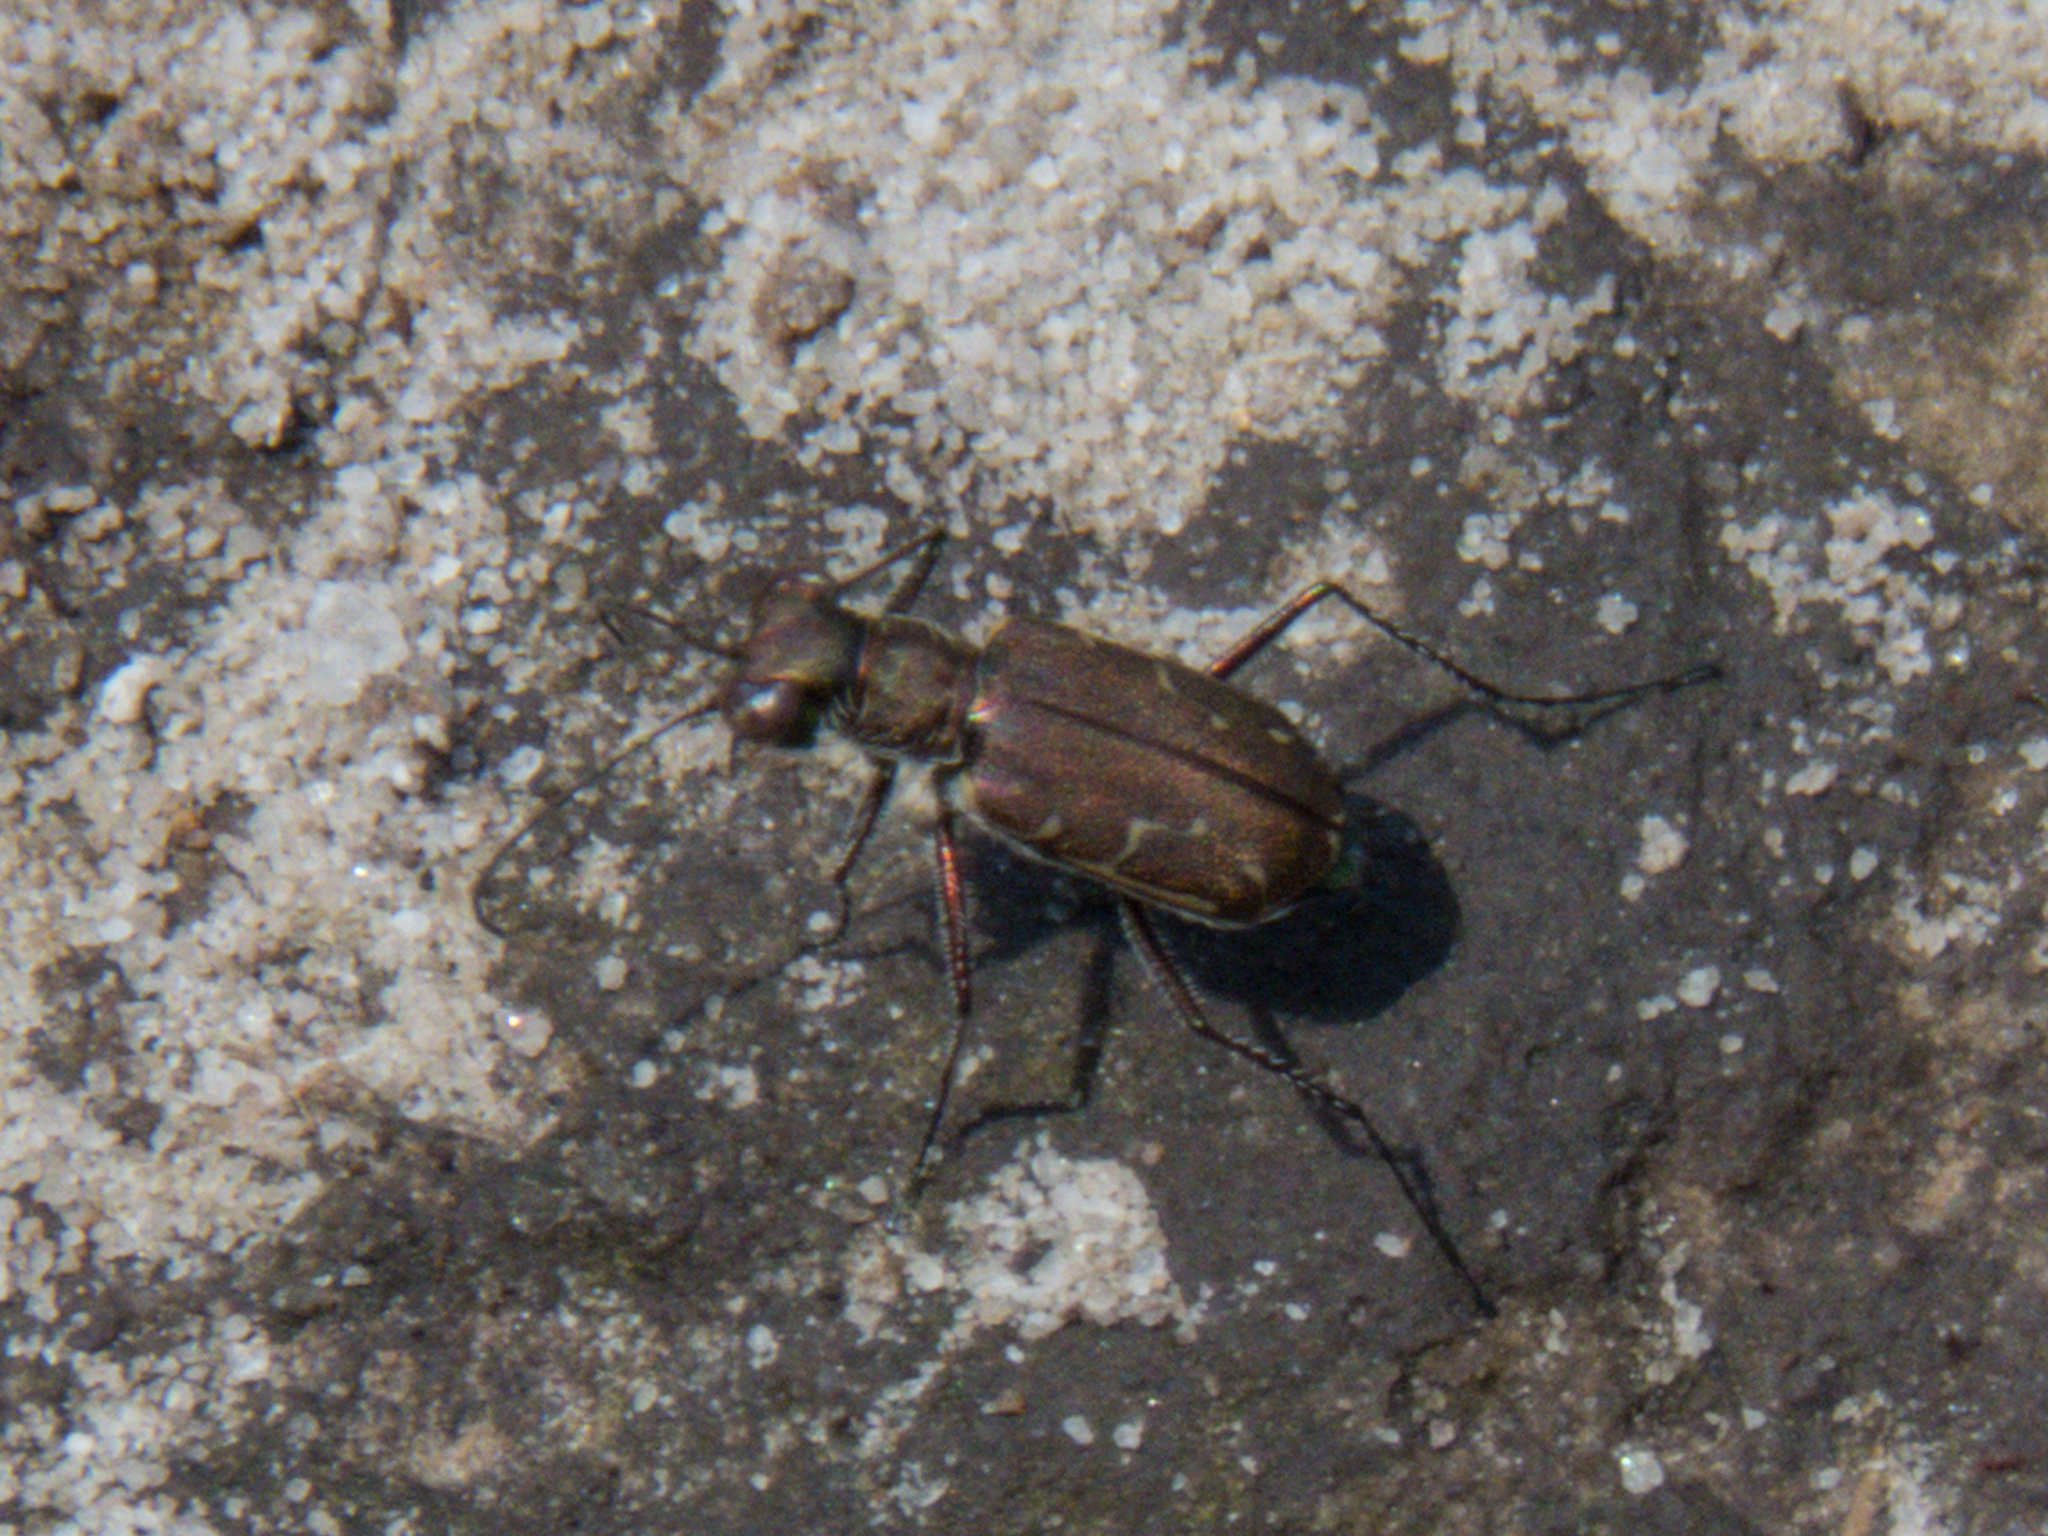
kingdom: Animalia
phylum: Arthropoda
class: Insecta
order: Coleoptera
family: Carabidae
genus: Cylindera
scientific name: Cylindera minuta
